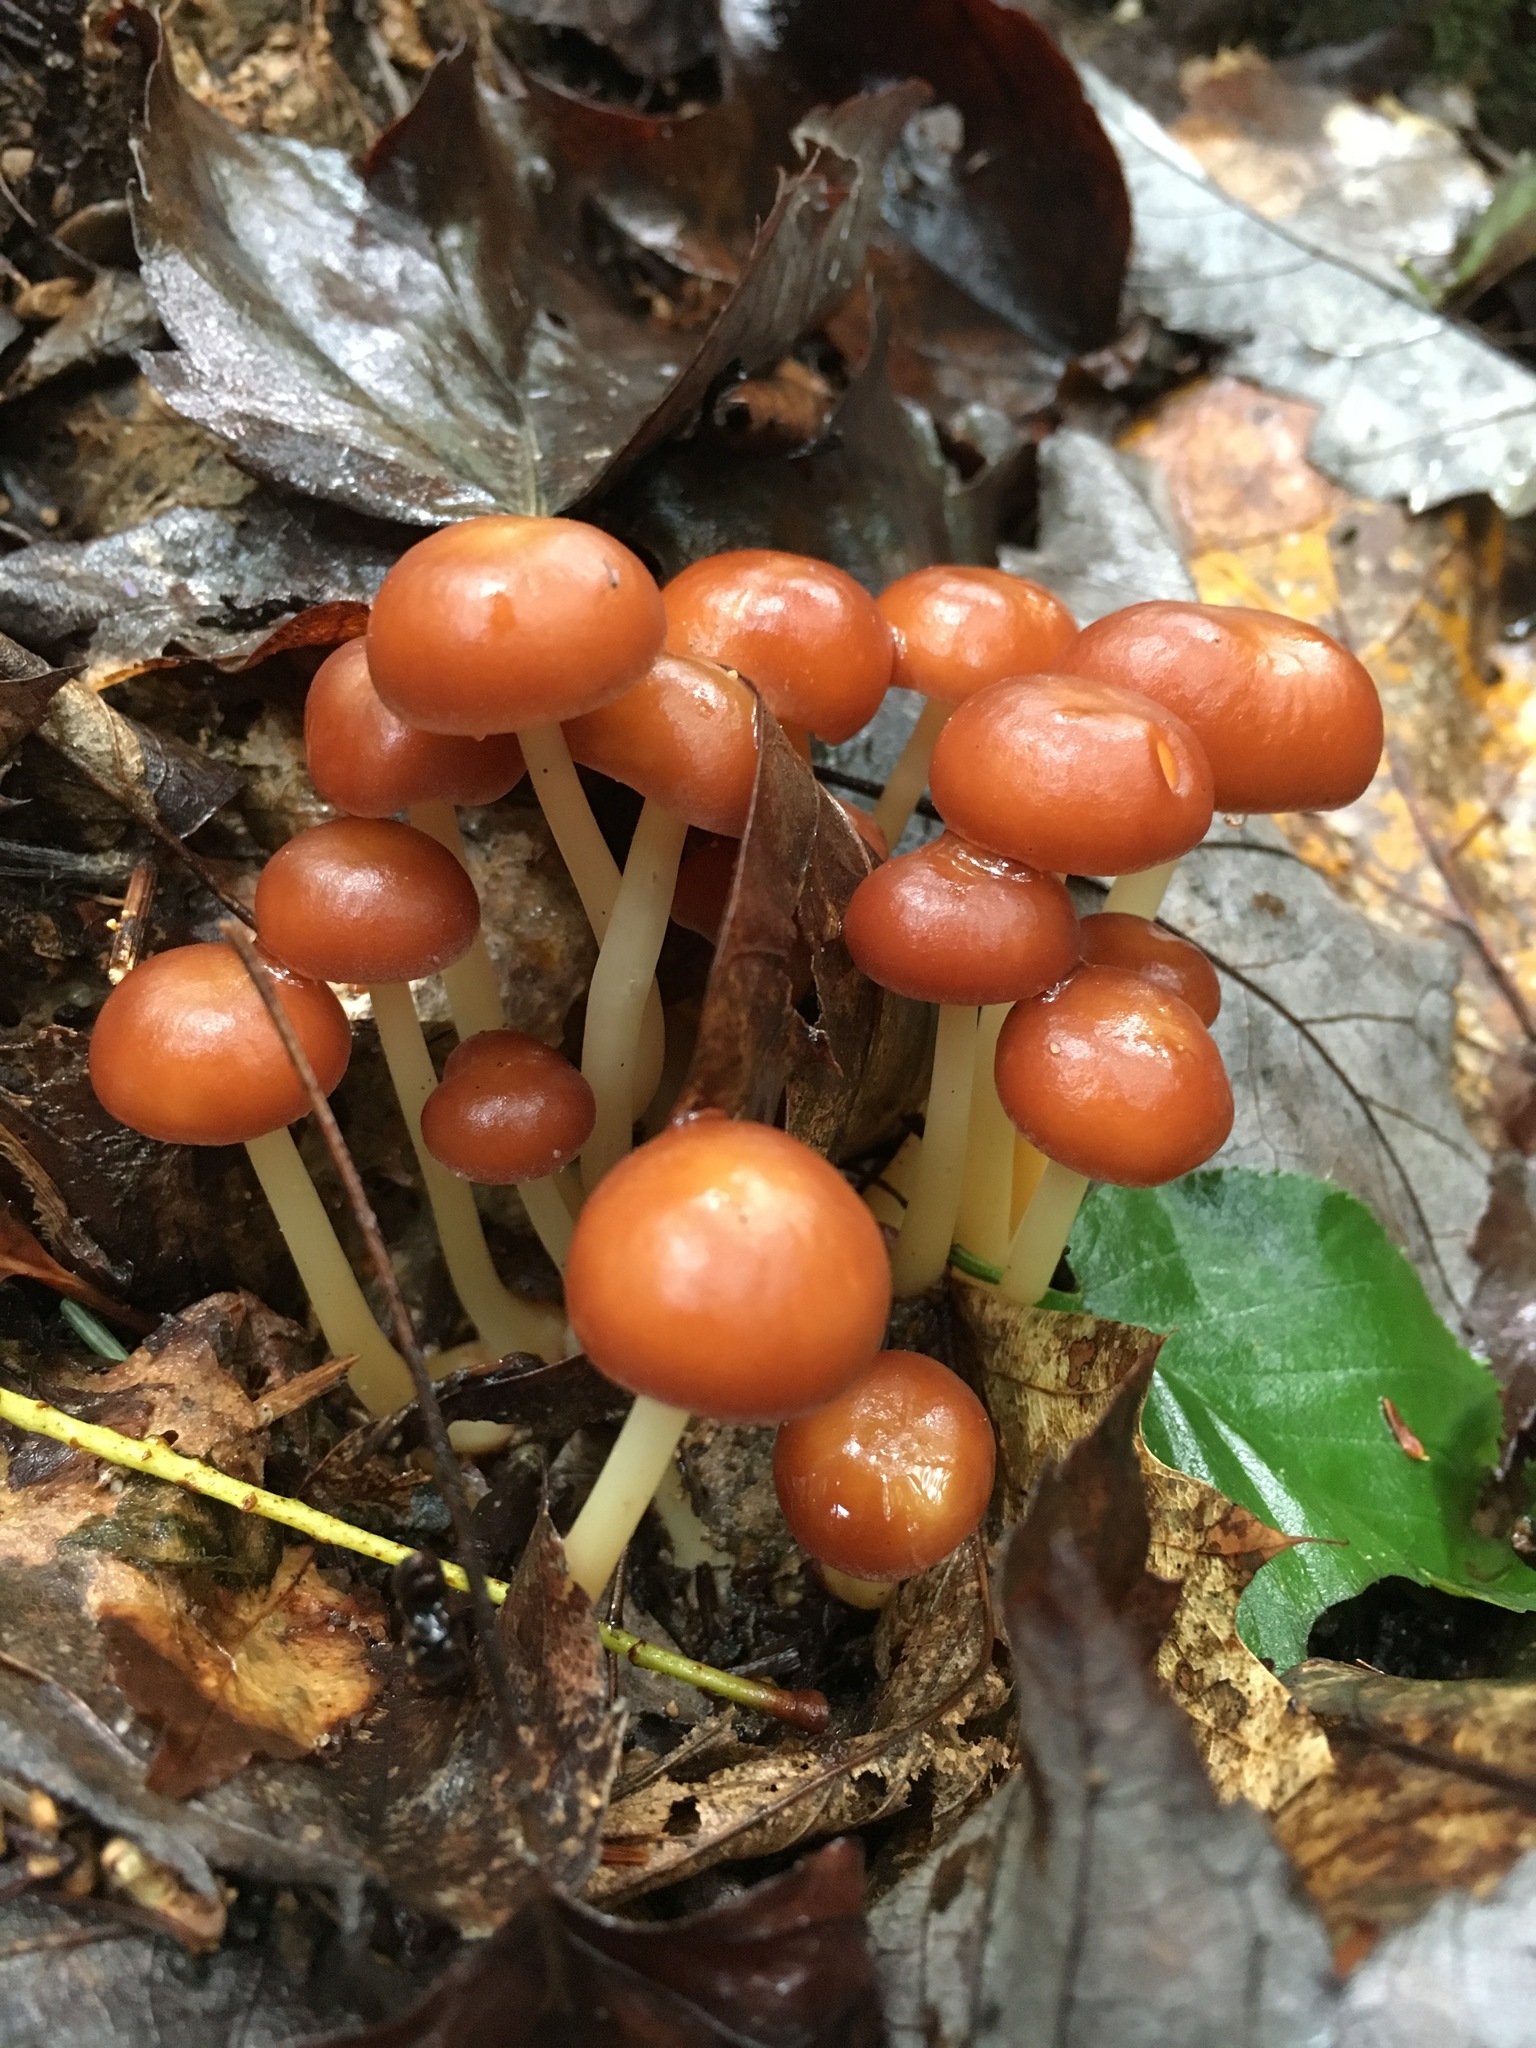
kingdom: Fungi
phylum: Basidiomycota
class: Agaricomycetes
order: Agaricales
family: Omphalotaceae
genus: Gymnopus
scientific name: Gymnopus dryophilus
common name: Penny top
